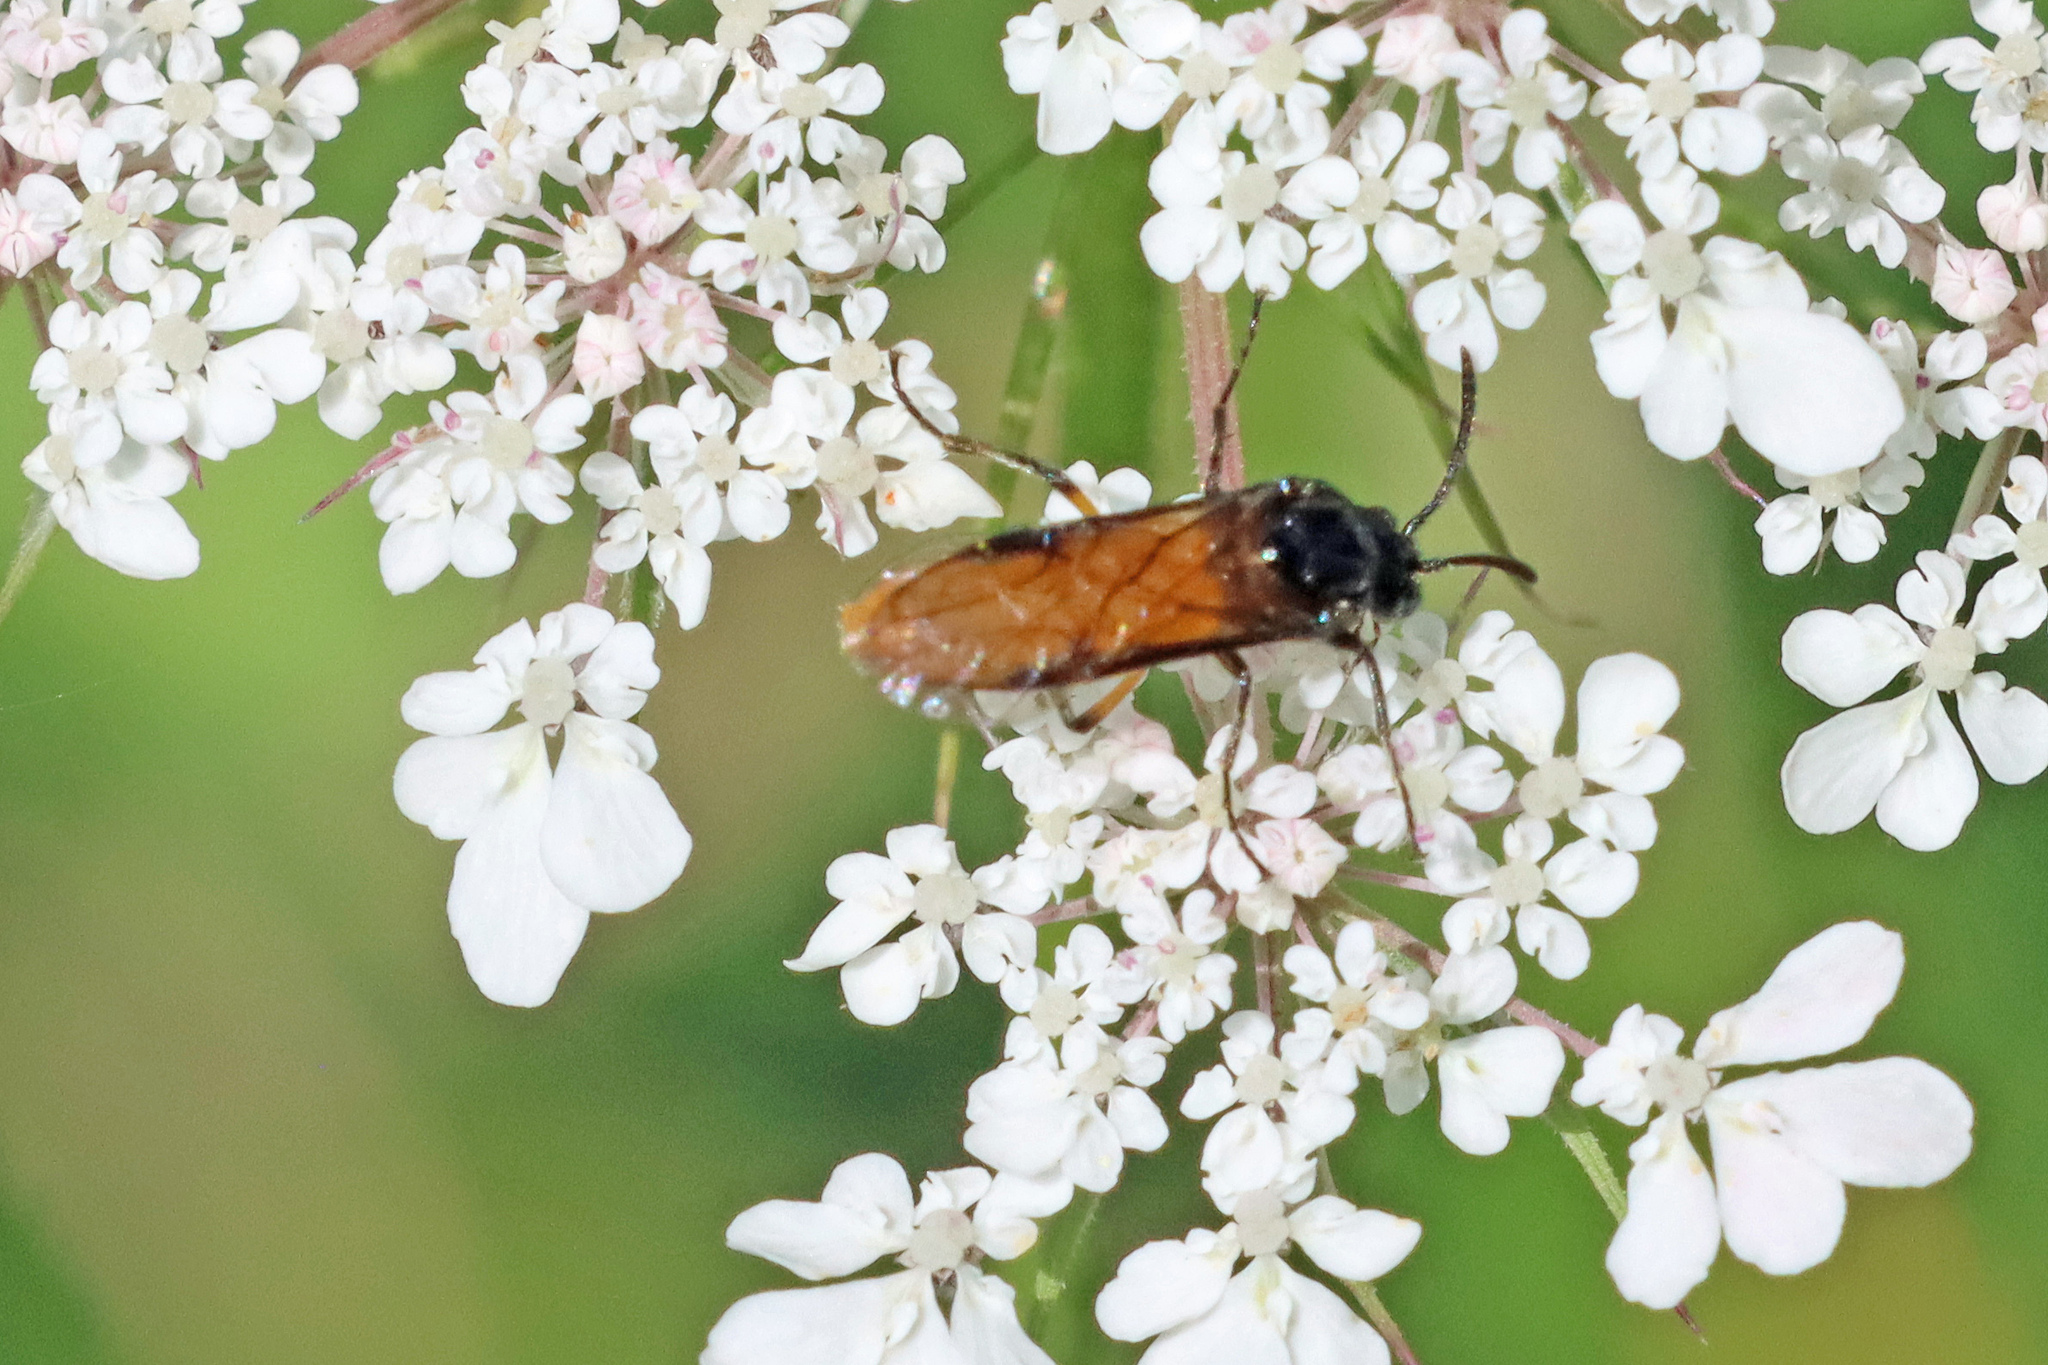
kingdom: Animalia
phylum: Arthropoda
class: Insecta
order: Hymenoptera
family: Argidae
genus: Arge
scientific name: Arge pagana
